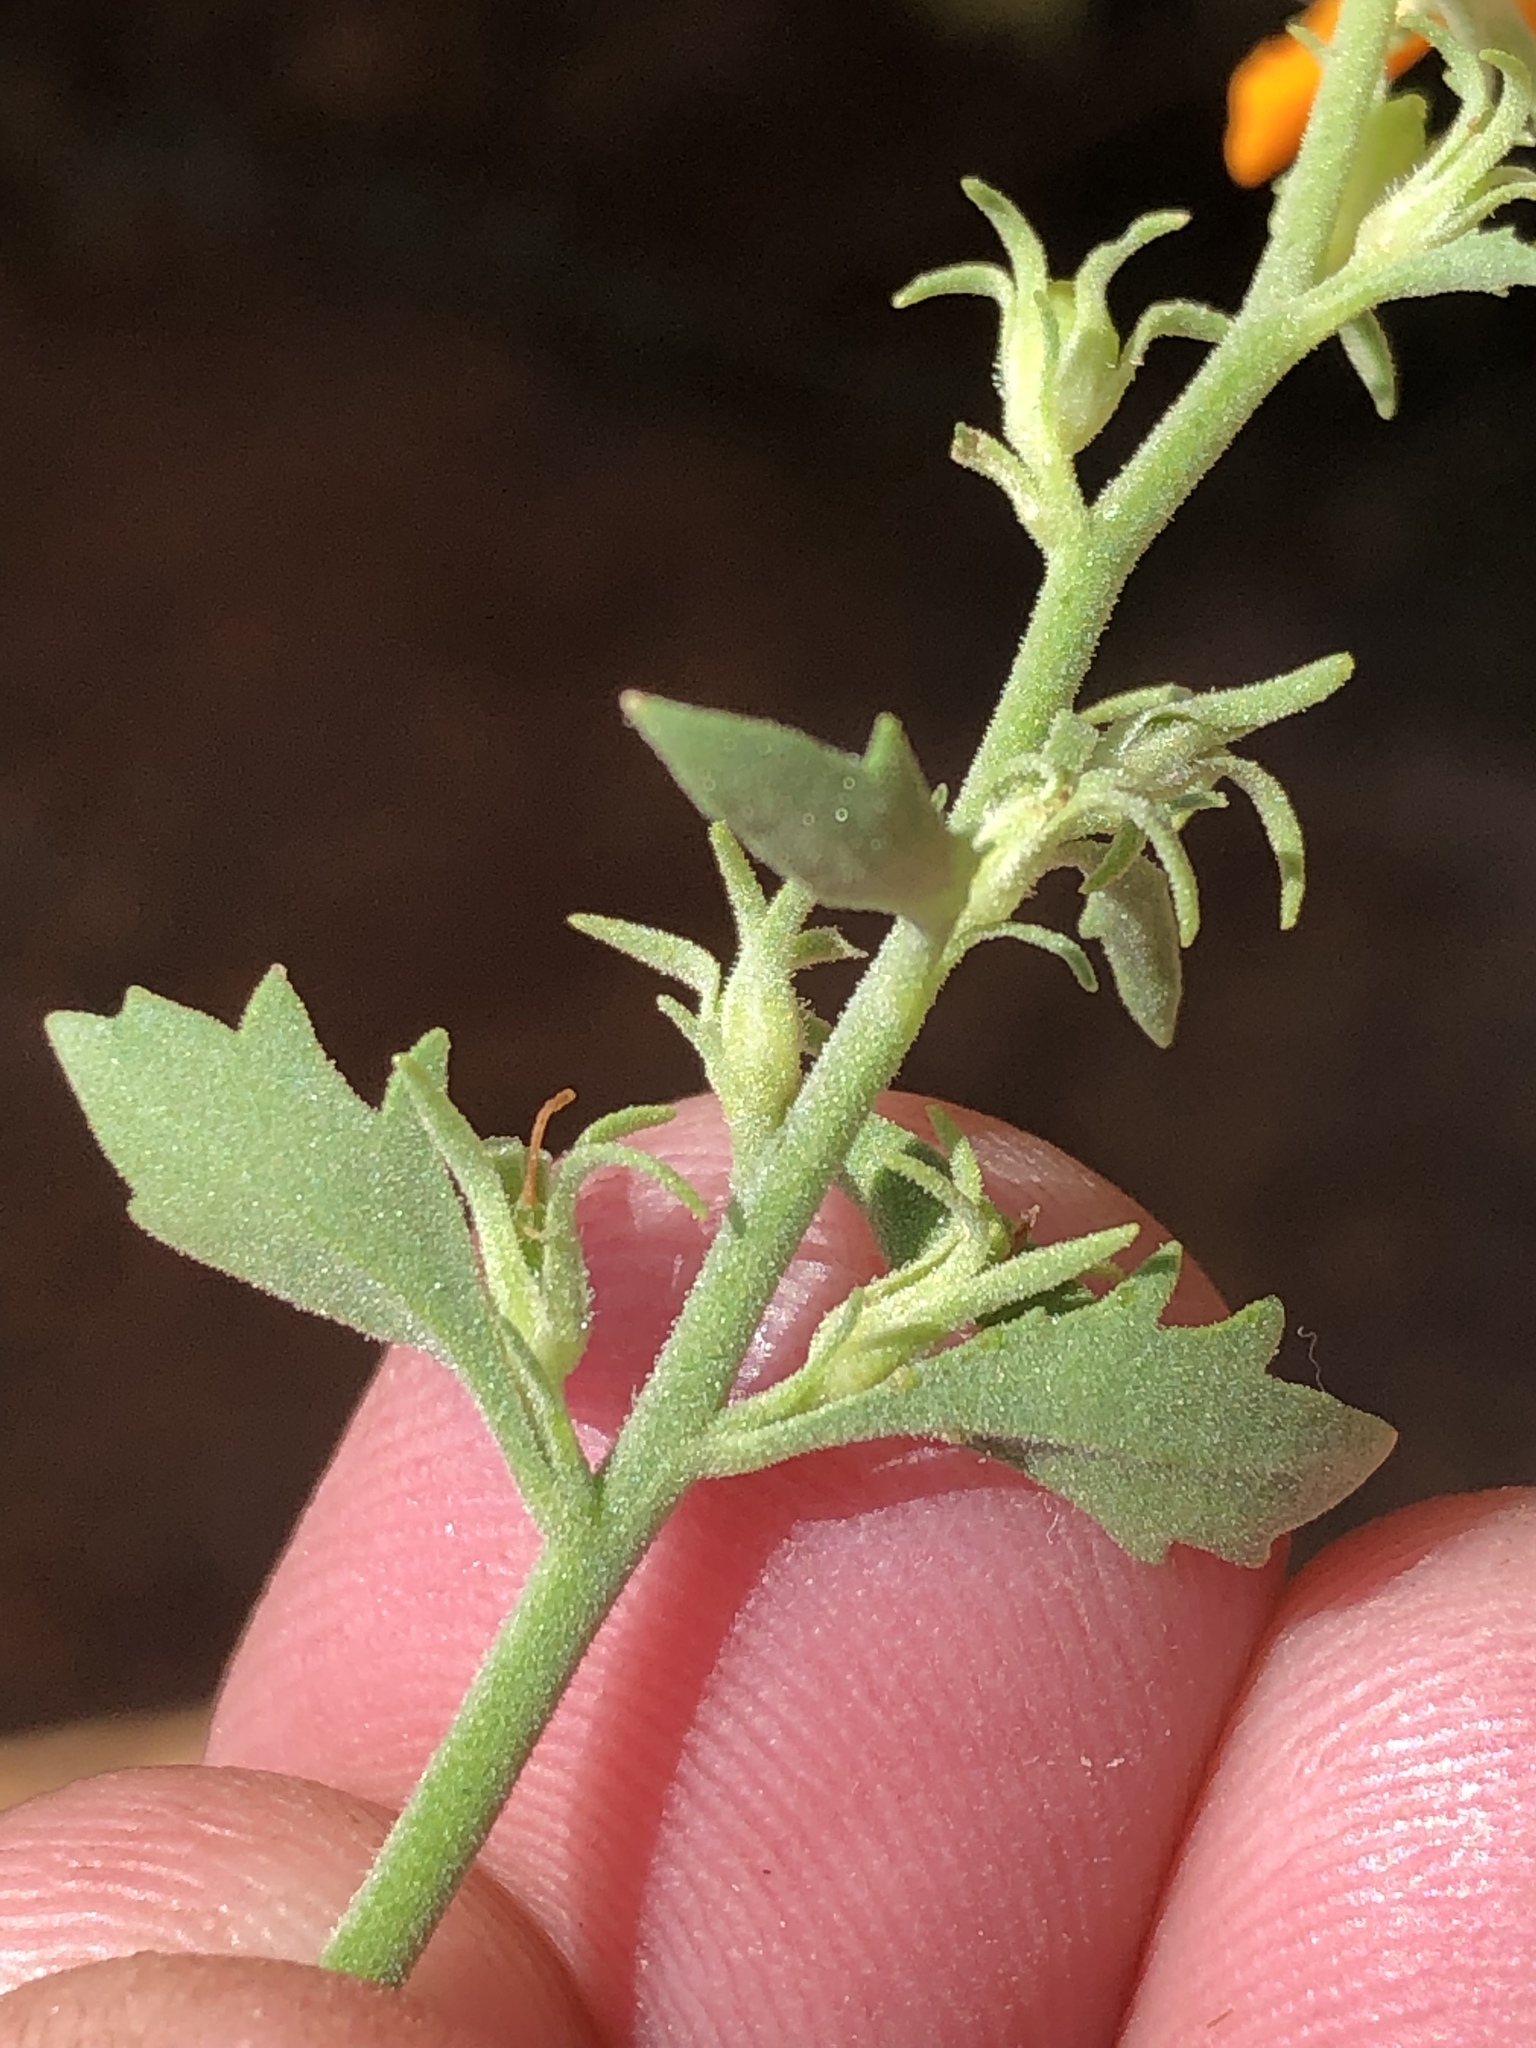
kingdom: Plantae
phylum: Tracheophyta
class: Magnoliopsida
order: Lamiales
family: Scrophulariaceae
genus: Jamesbrittenia
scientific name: Jamesbrittenia chenopodioides
